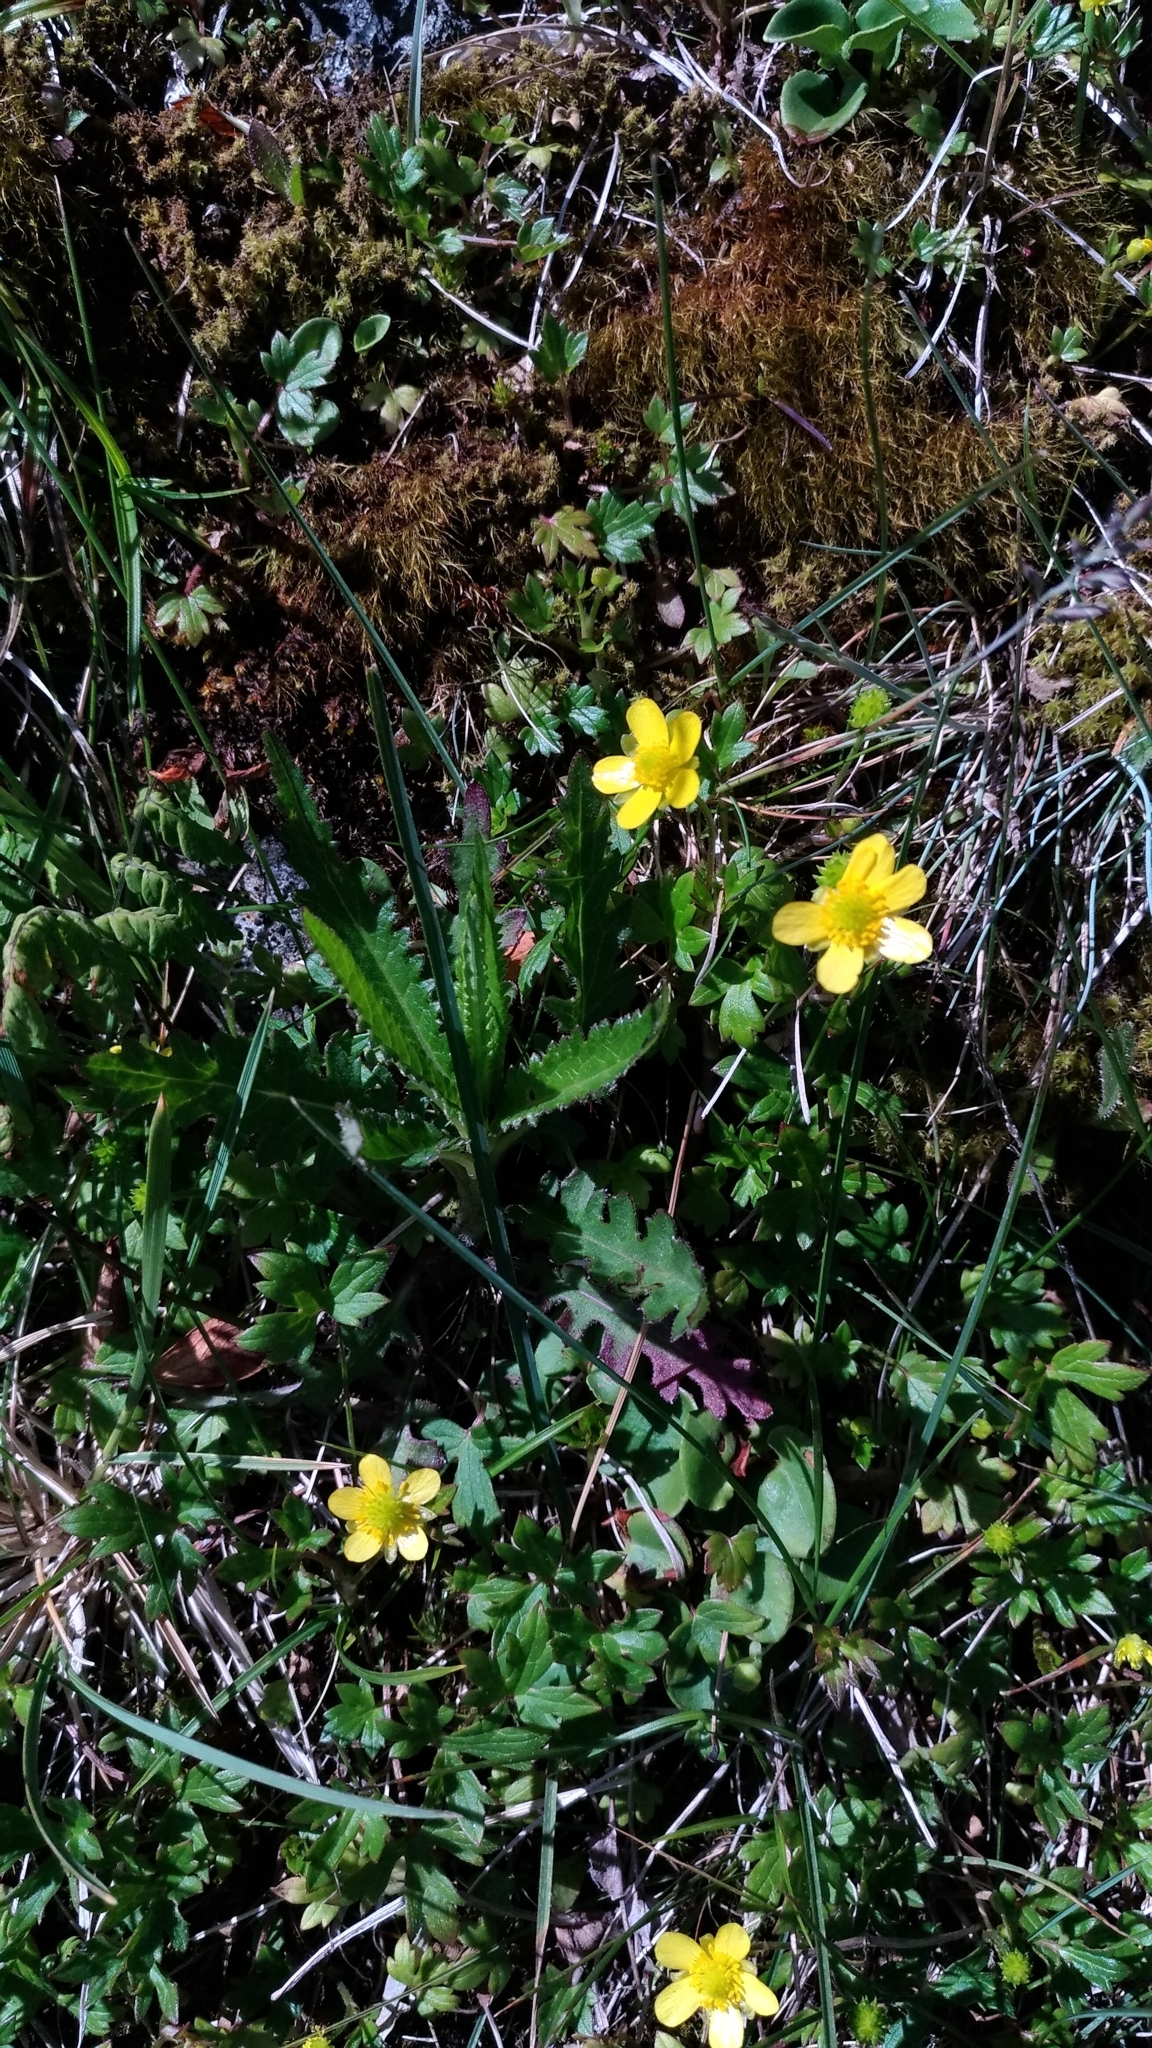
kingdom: Plantae
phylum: Tracheophyta
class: Magnoliopsida
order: Ranunculales
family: Ranunculaceae
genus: Ranunculus
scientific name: Ranunculus taisanensis
